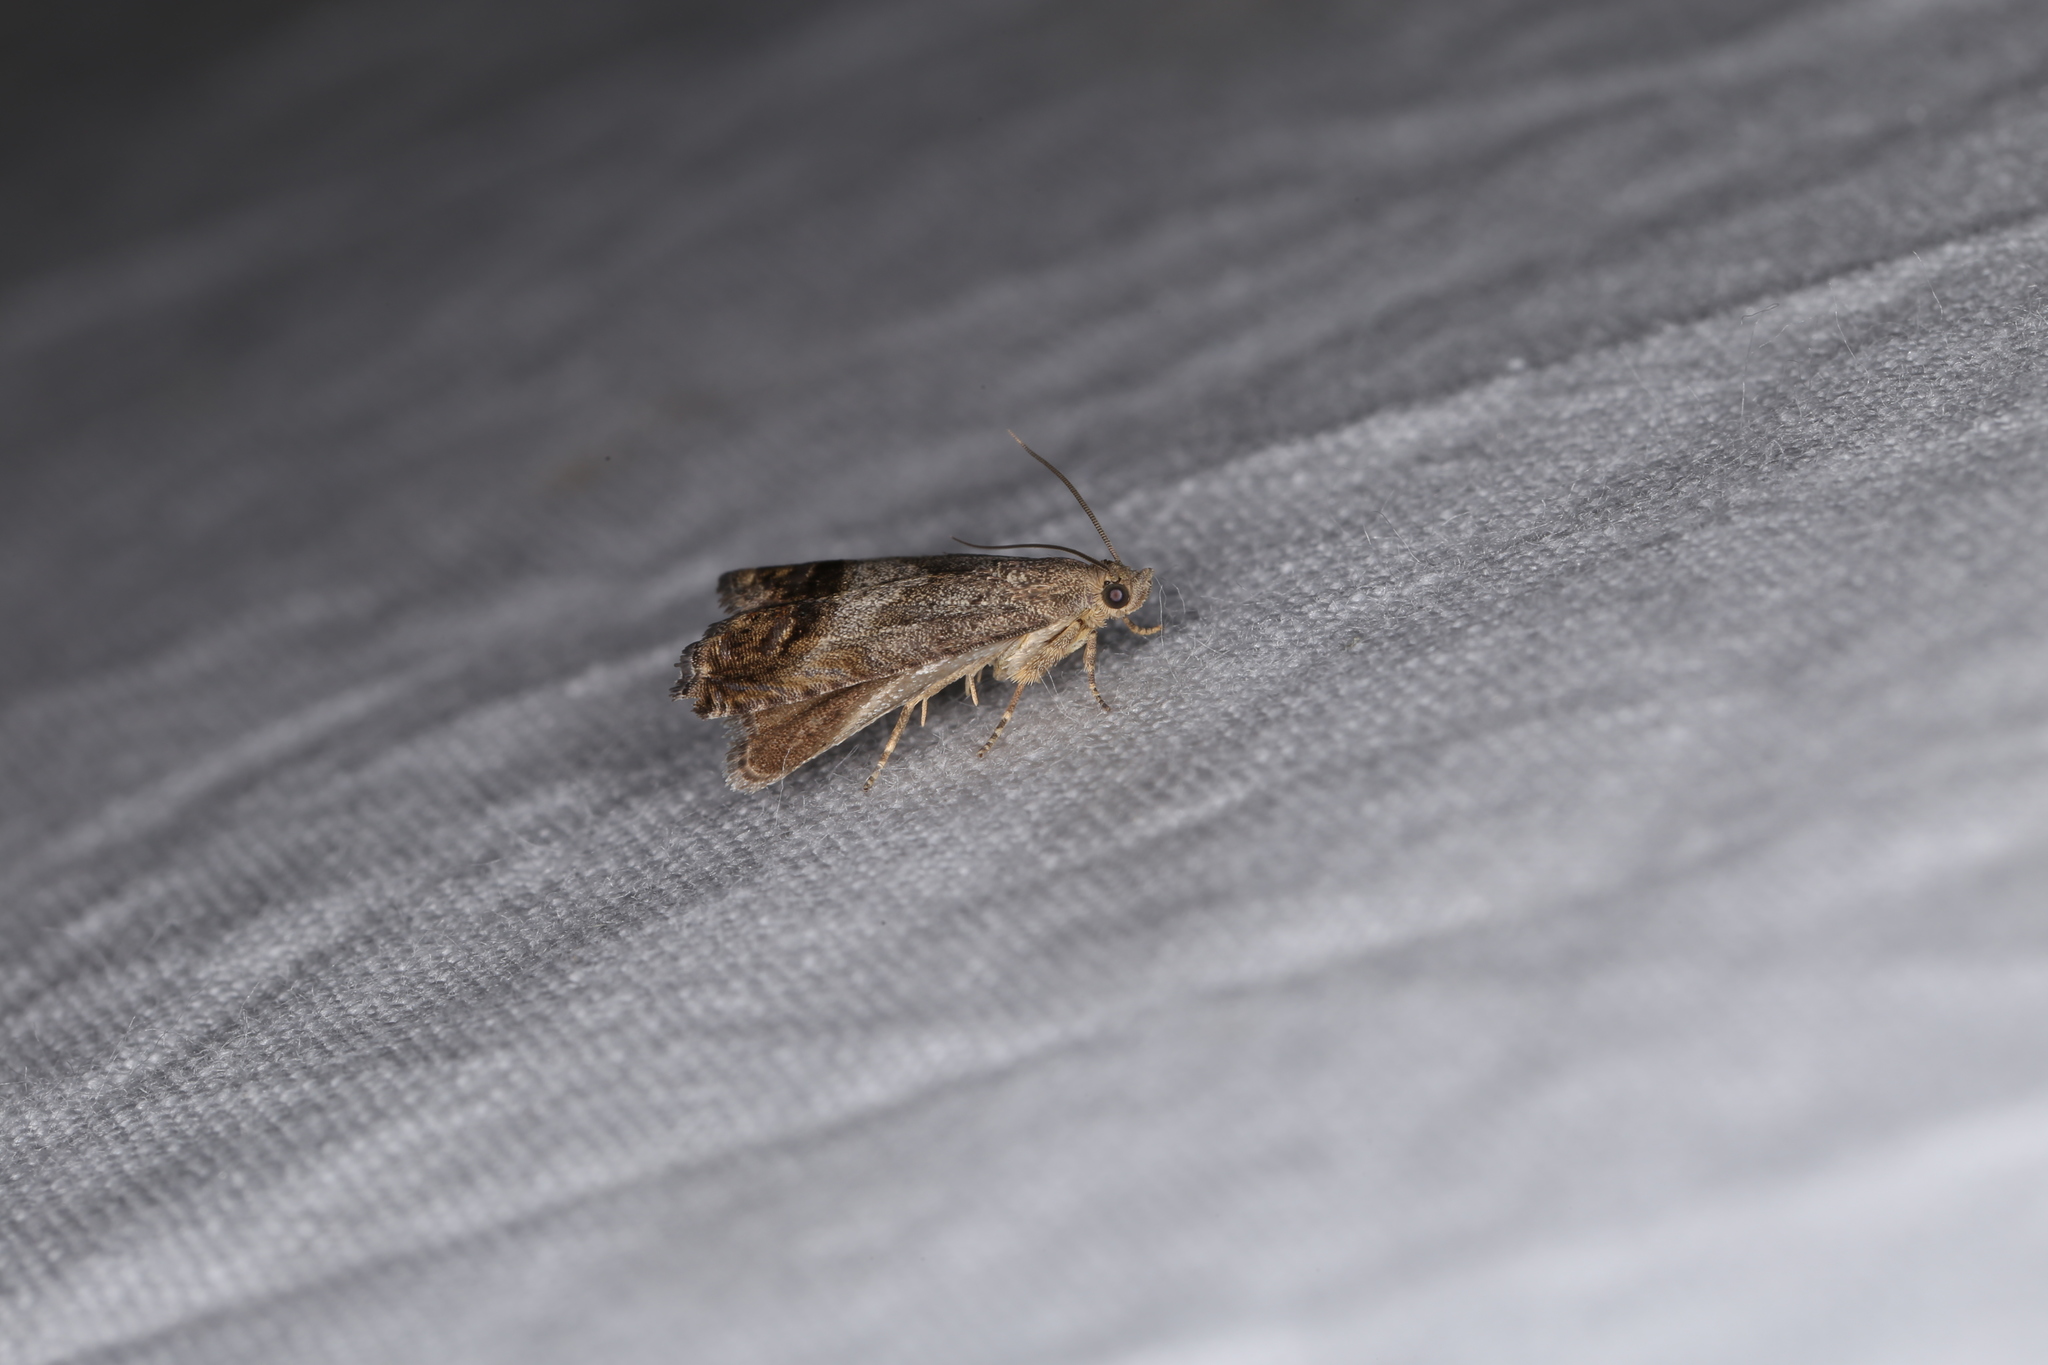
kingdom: Animalia
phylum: Arthropoda
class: Insecta
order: Lepidoptera
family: Tortricidae
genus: Cydia
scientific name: Cydia pomonella
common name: Codling moth
